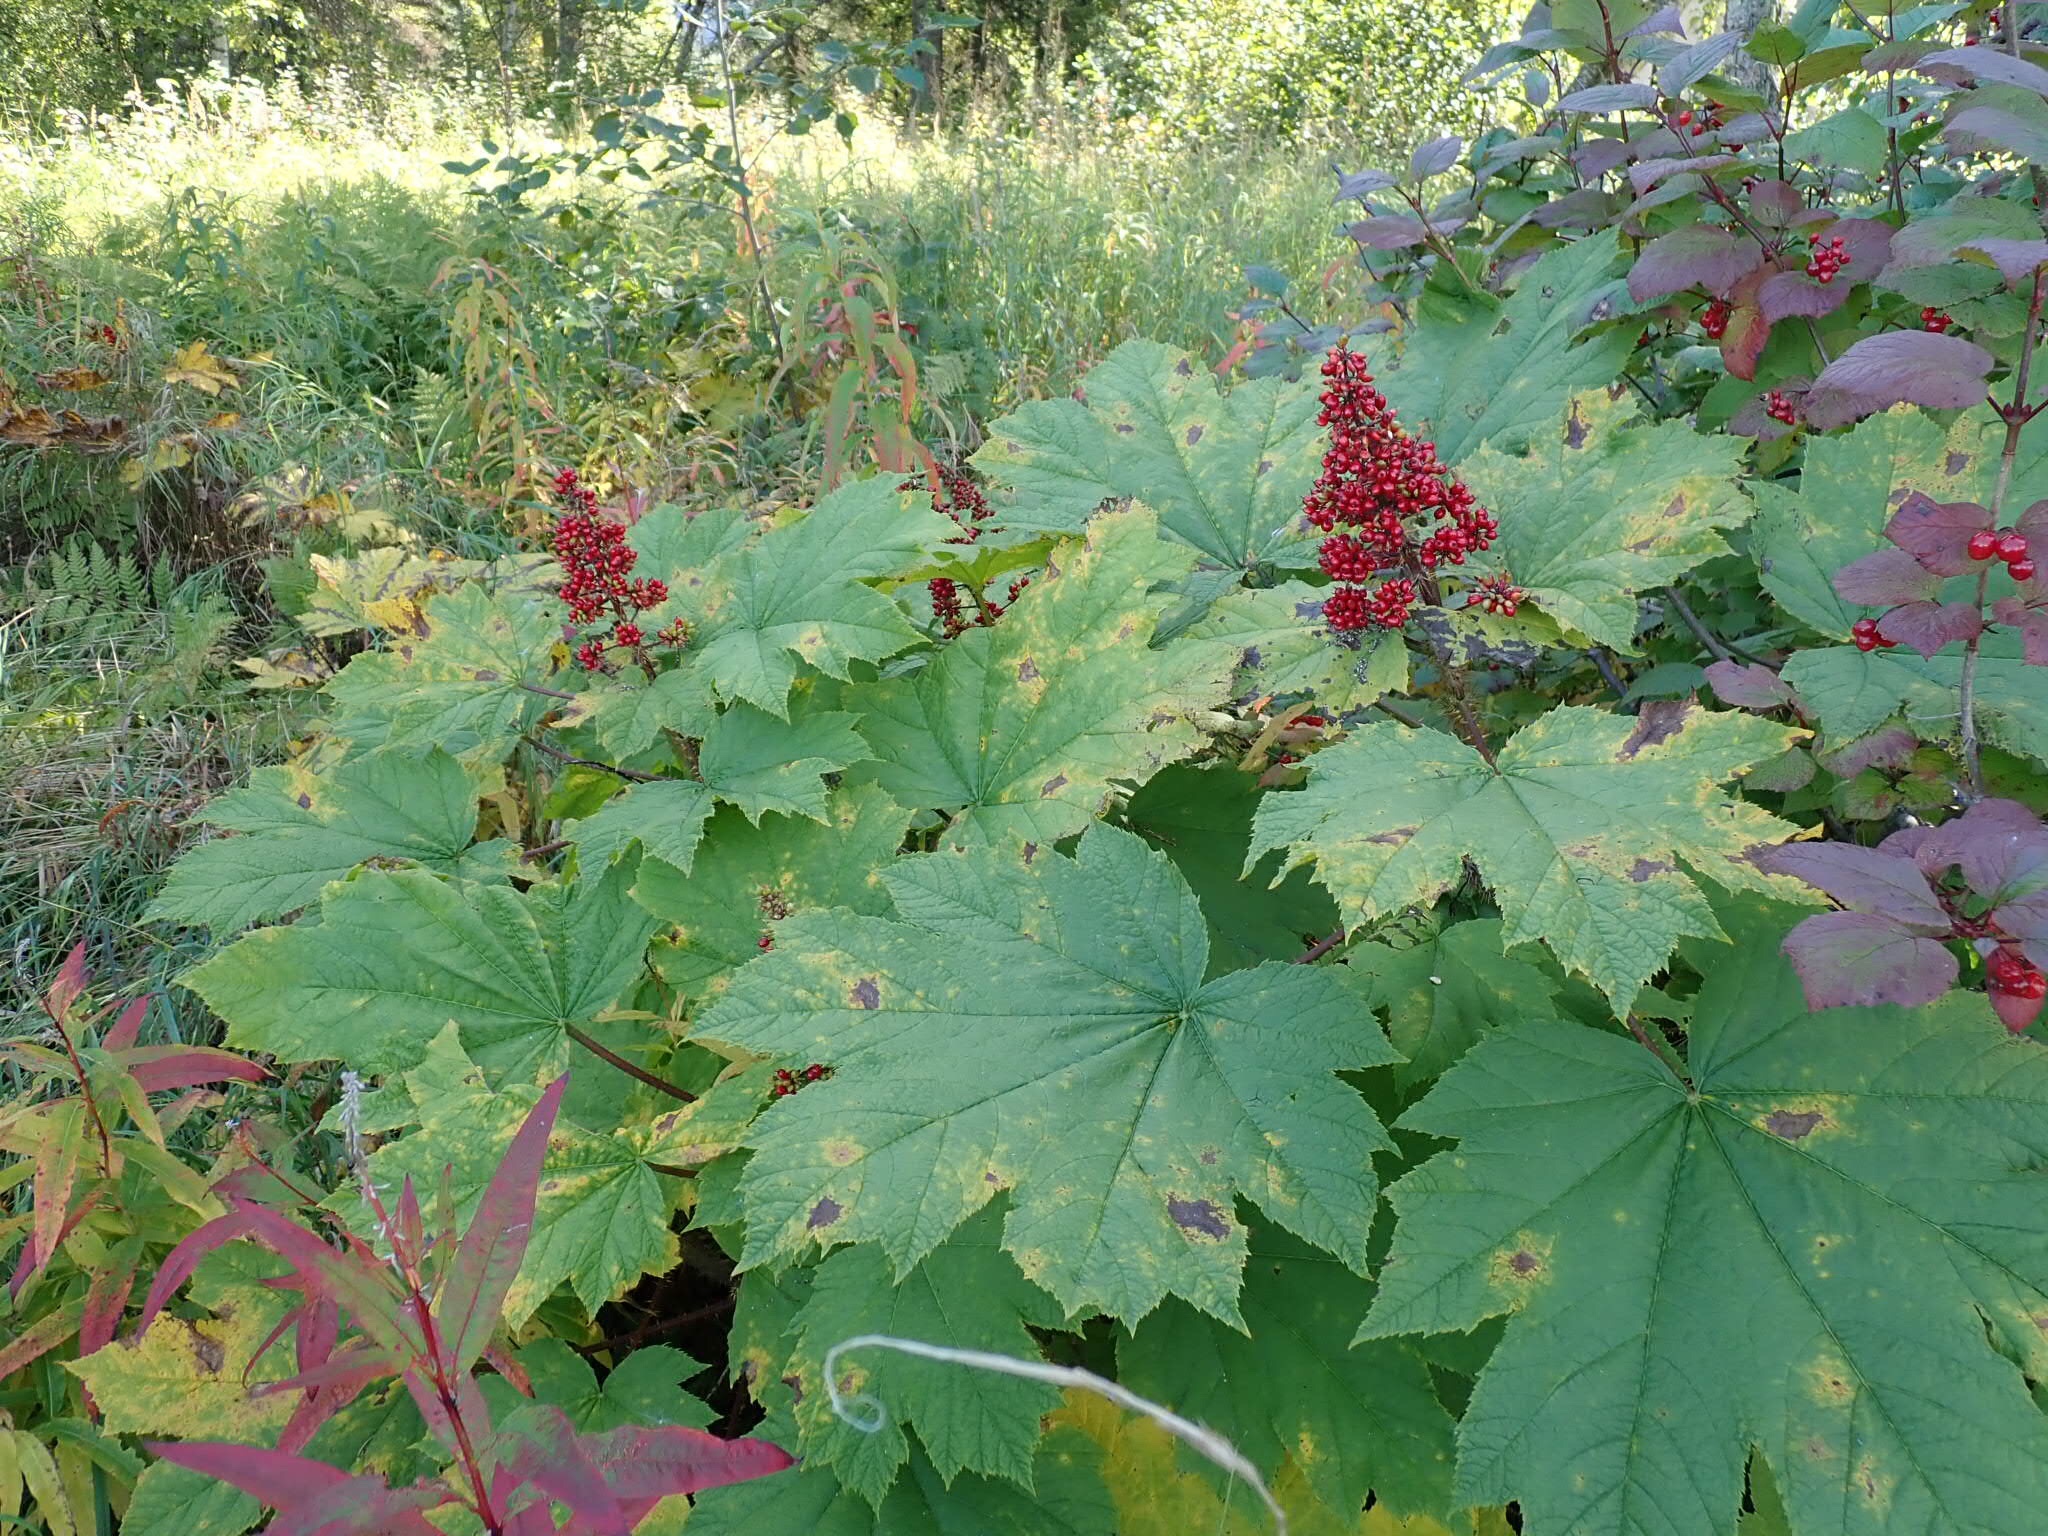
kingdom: Plantae
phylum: Tracheophyta
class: Magnoliopsida
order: Apiales
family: Araliaceae
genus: Oplopanax
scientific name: Oplopanax horridus
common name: Devil's walking-stick
